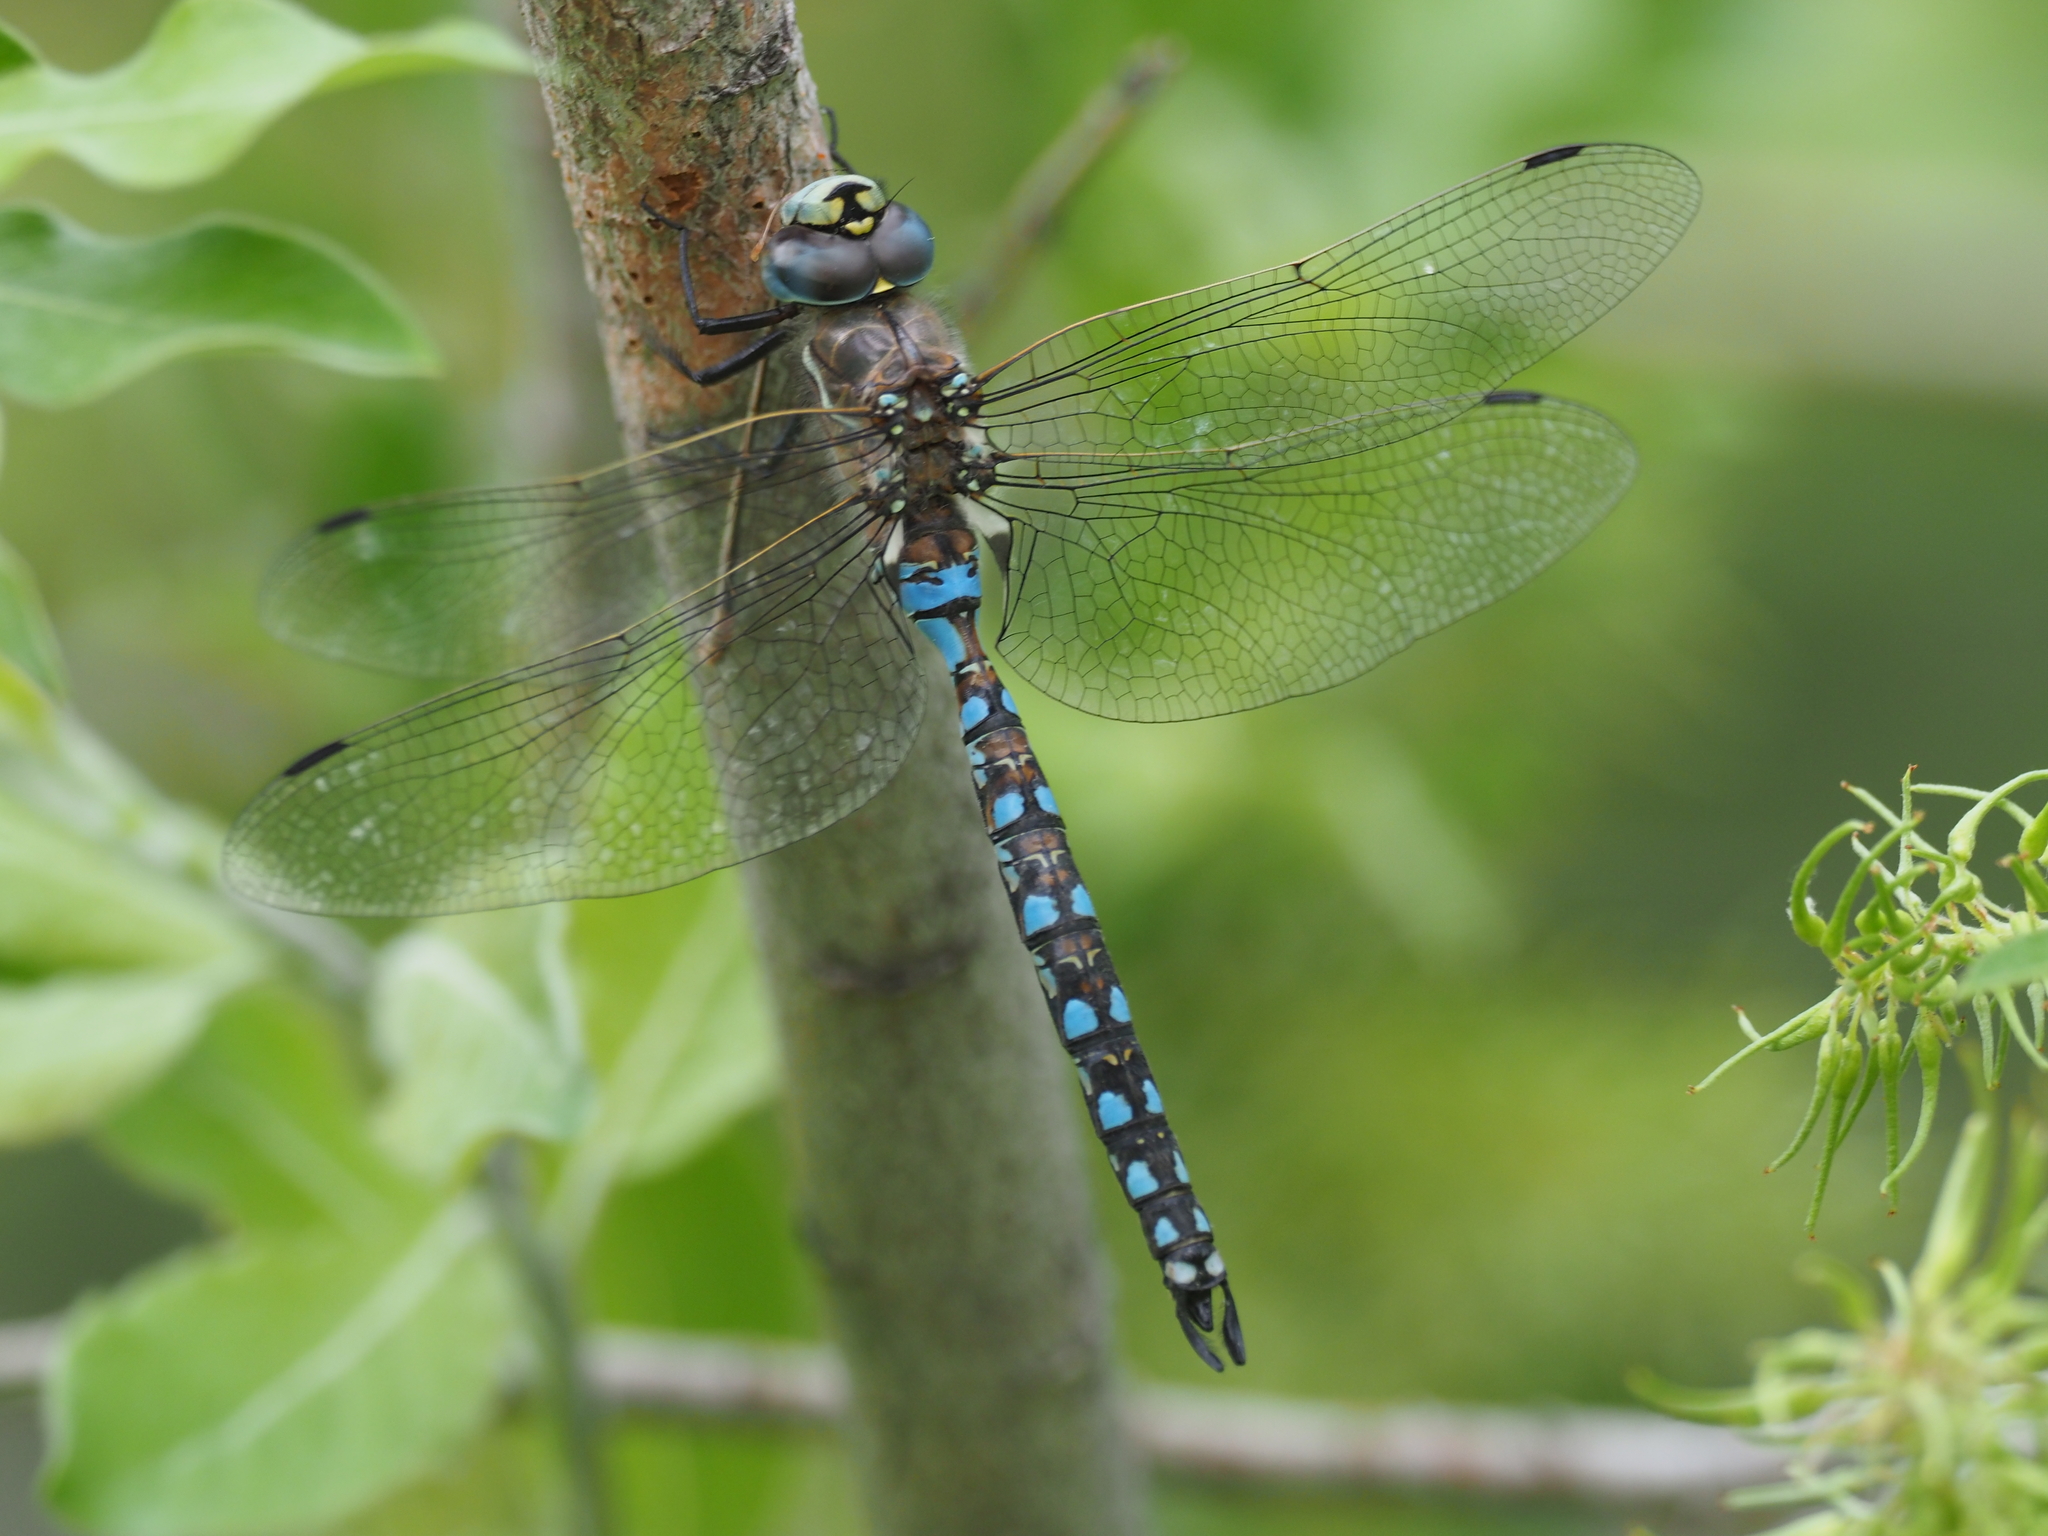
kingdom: Animalia
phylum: Arthropoda
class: Insecta
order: Odonata
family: Aeshnidae
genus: Rhionaeschna
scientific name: Rhionaeschna californica
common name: California darner
